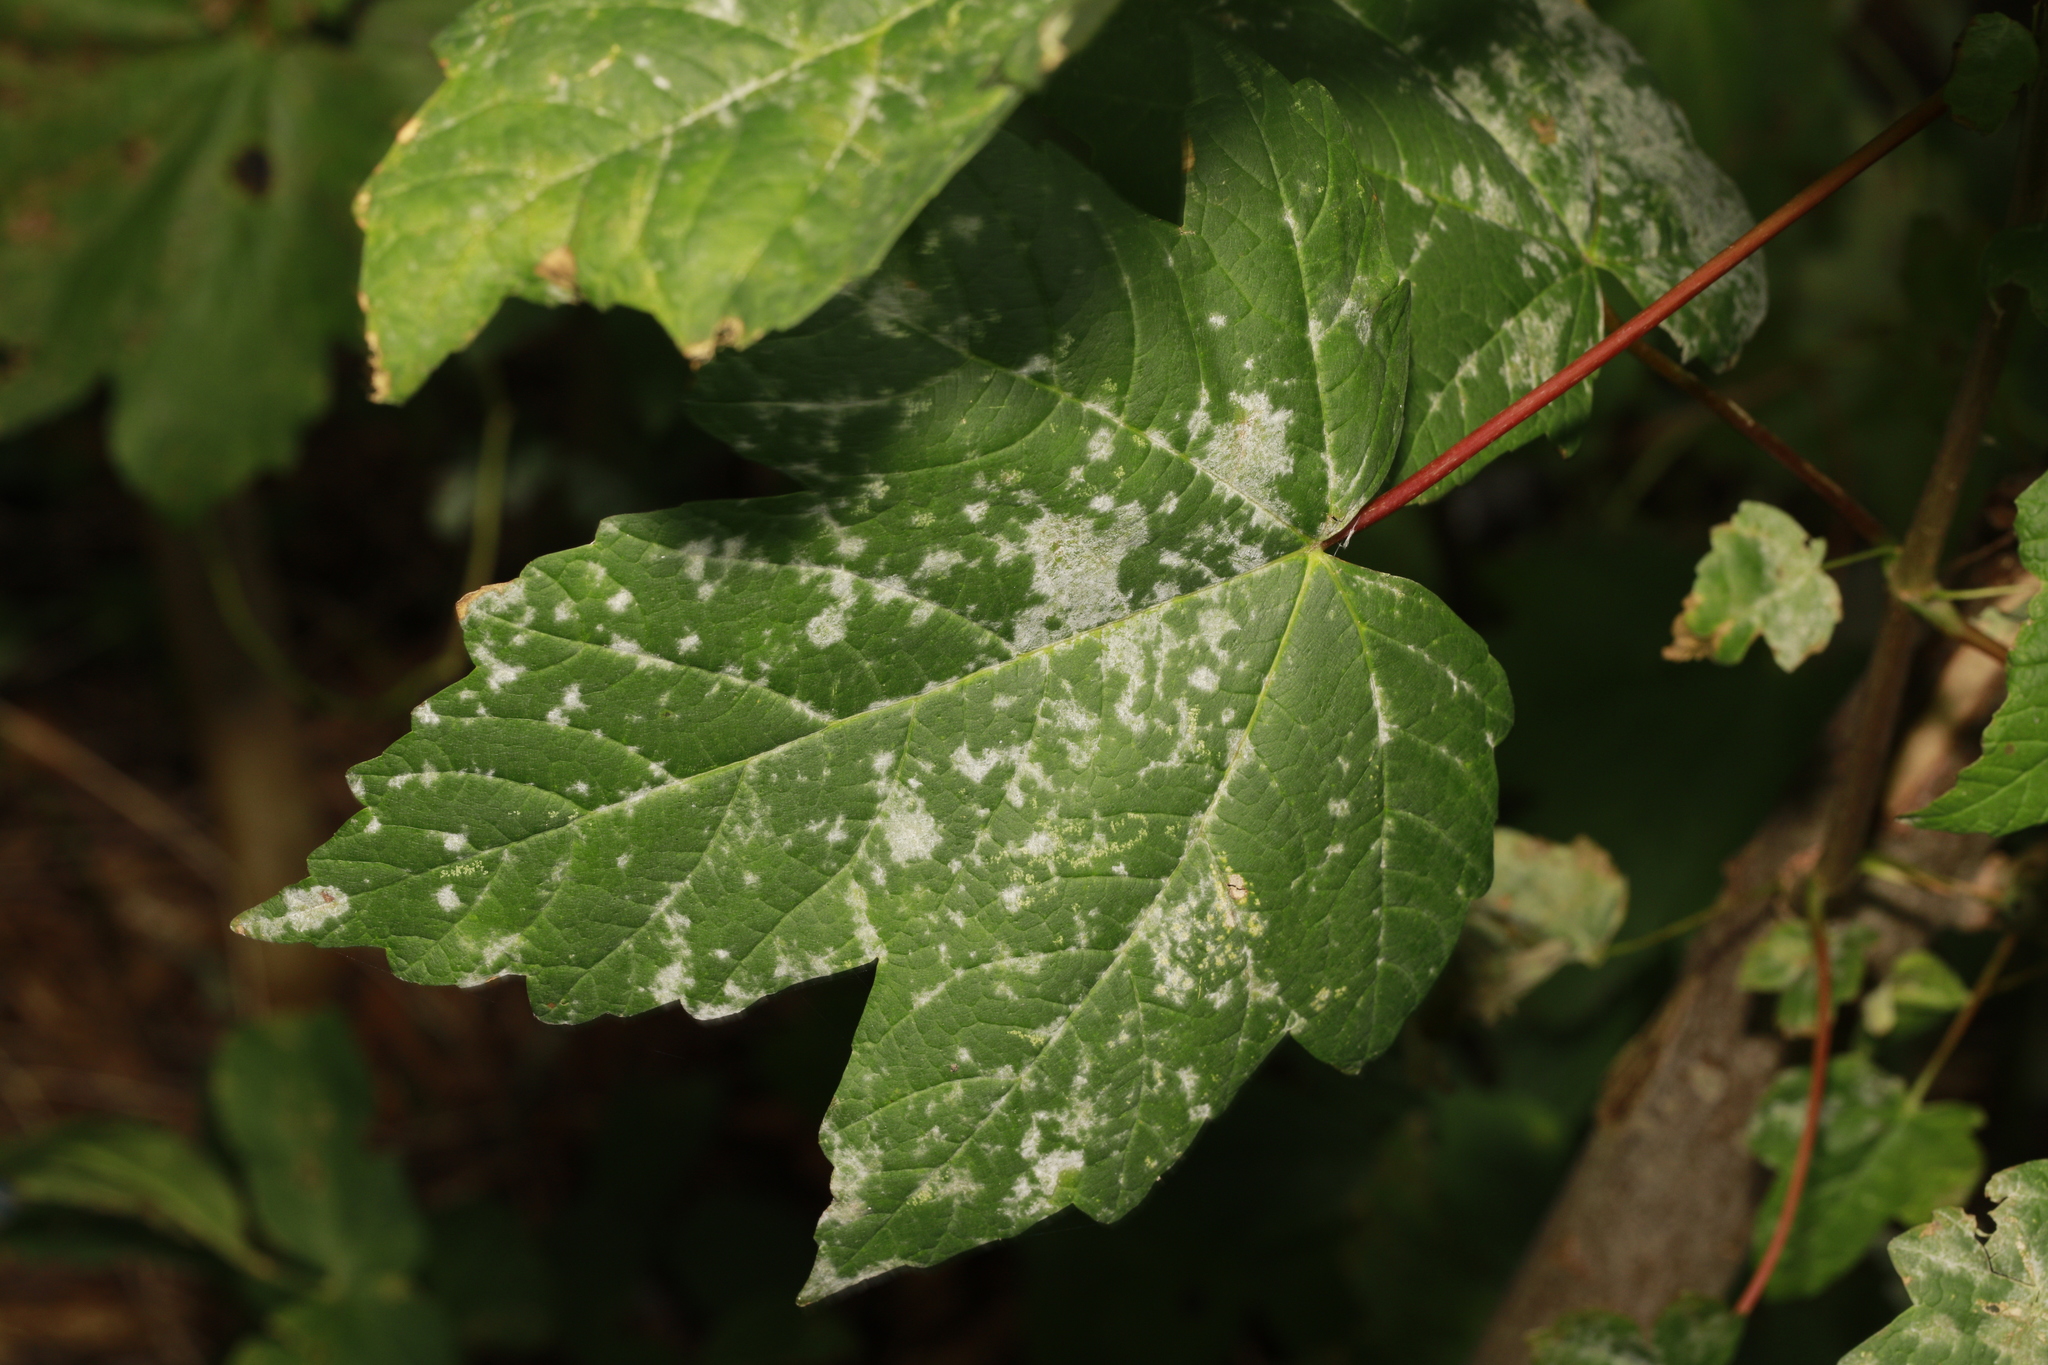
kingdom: Fungi
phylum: Ascomycota
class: Leotiomycetes
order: Helotiales
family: Erysiphaceae
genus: Sawadaea
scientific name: Sawadaea bicornis
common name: Maple mildew
